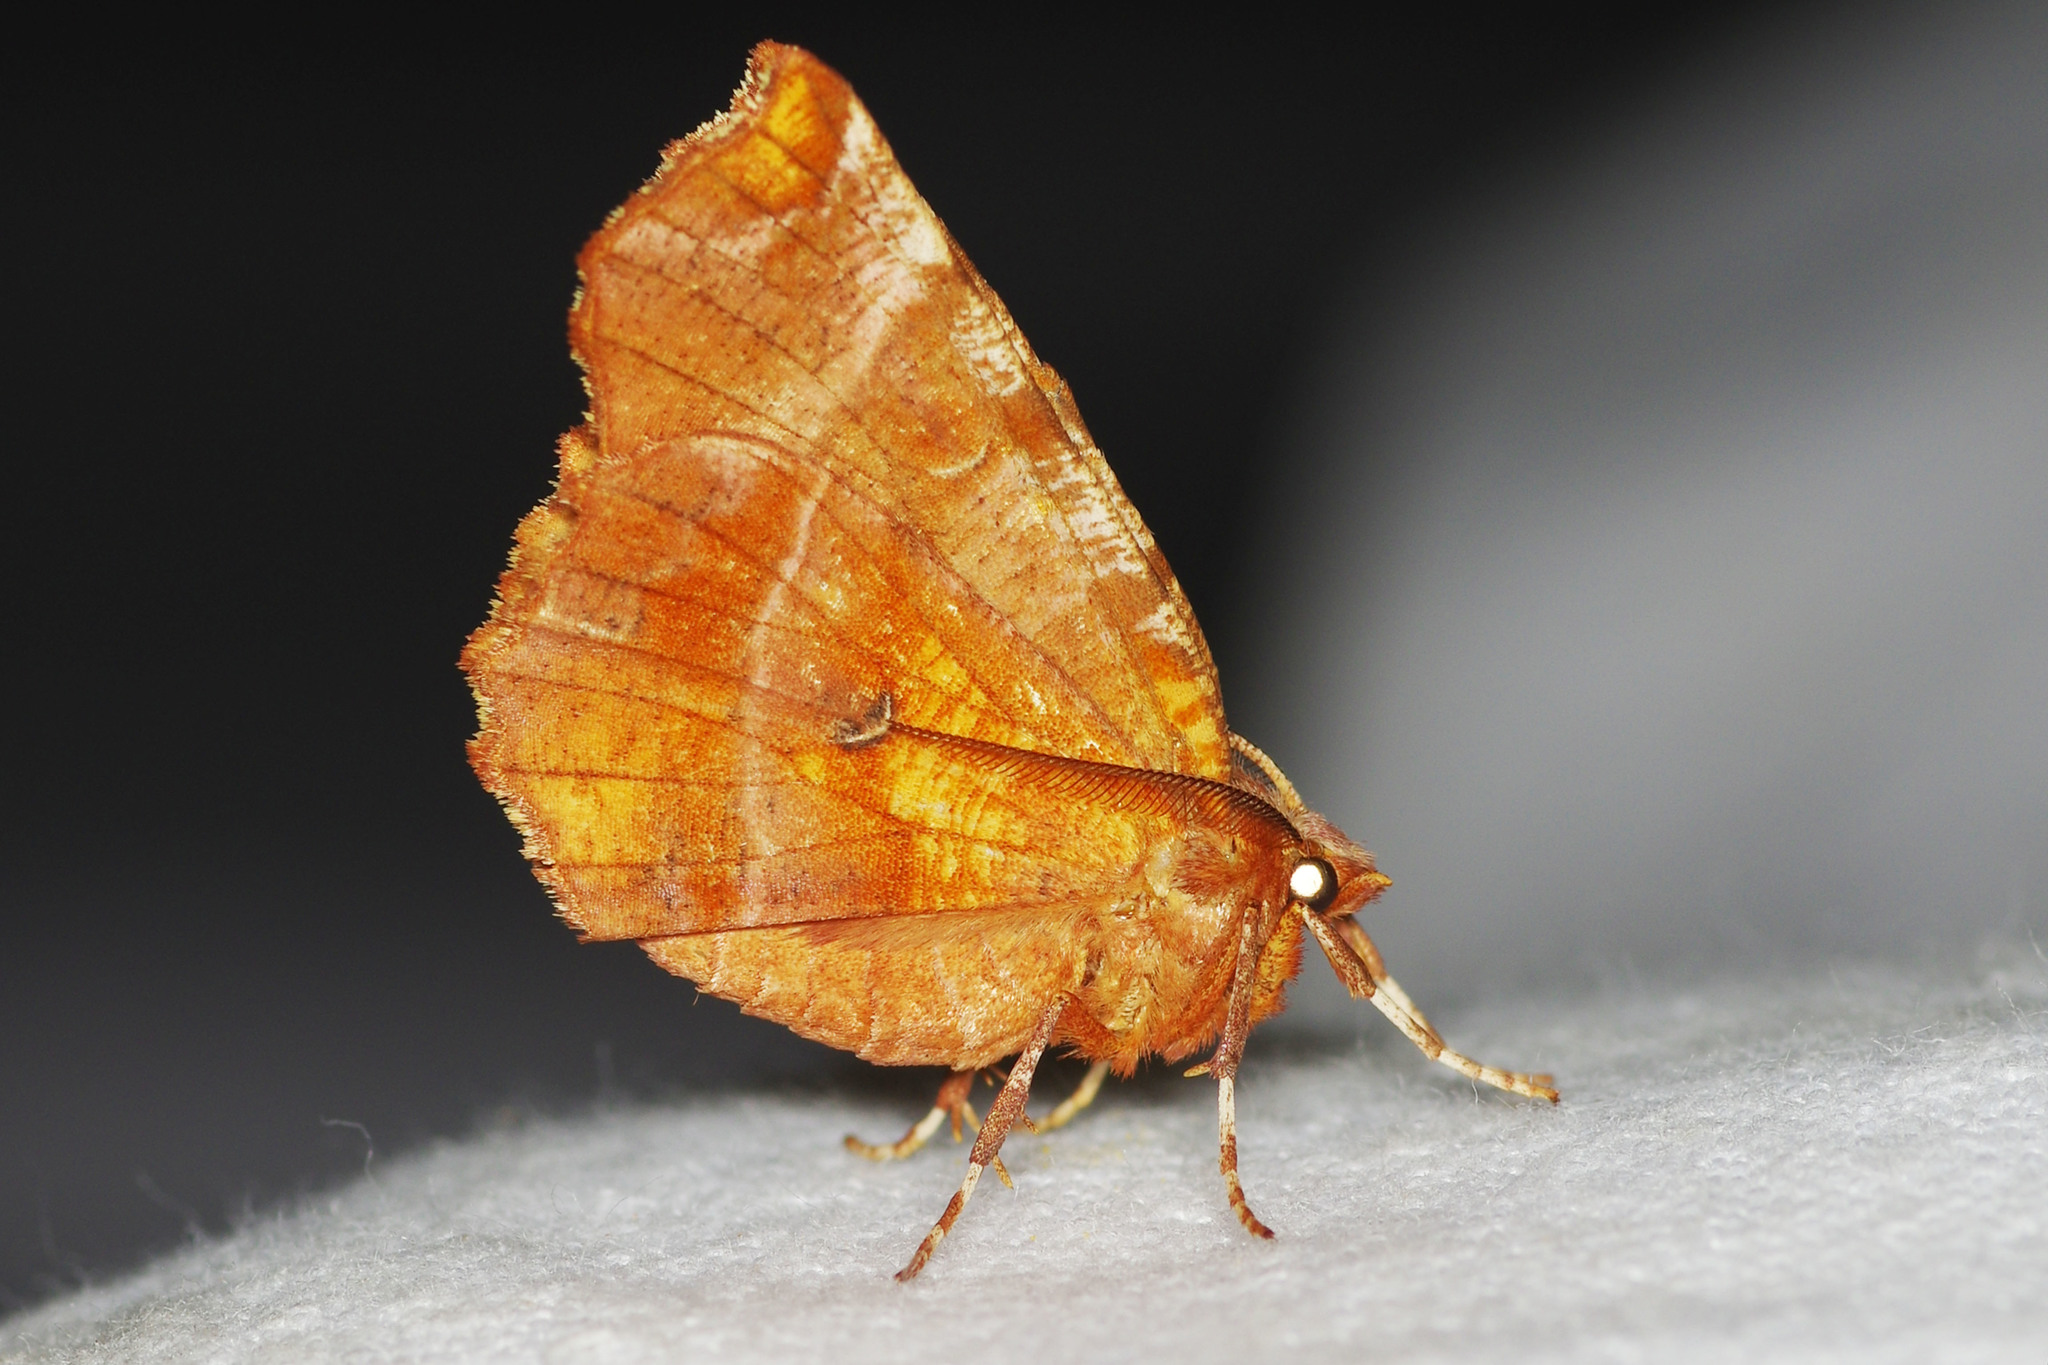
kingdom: Animalia
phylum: Arthropoda
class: Insecta
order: Lepidoptera
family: Geometridae
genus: Selenia
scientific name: Selenia dentaria
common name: Early thorn
